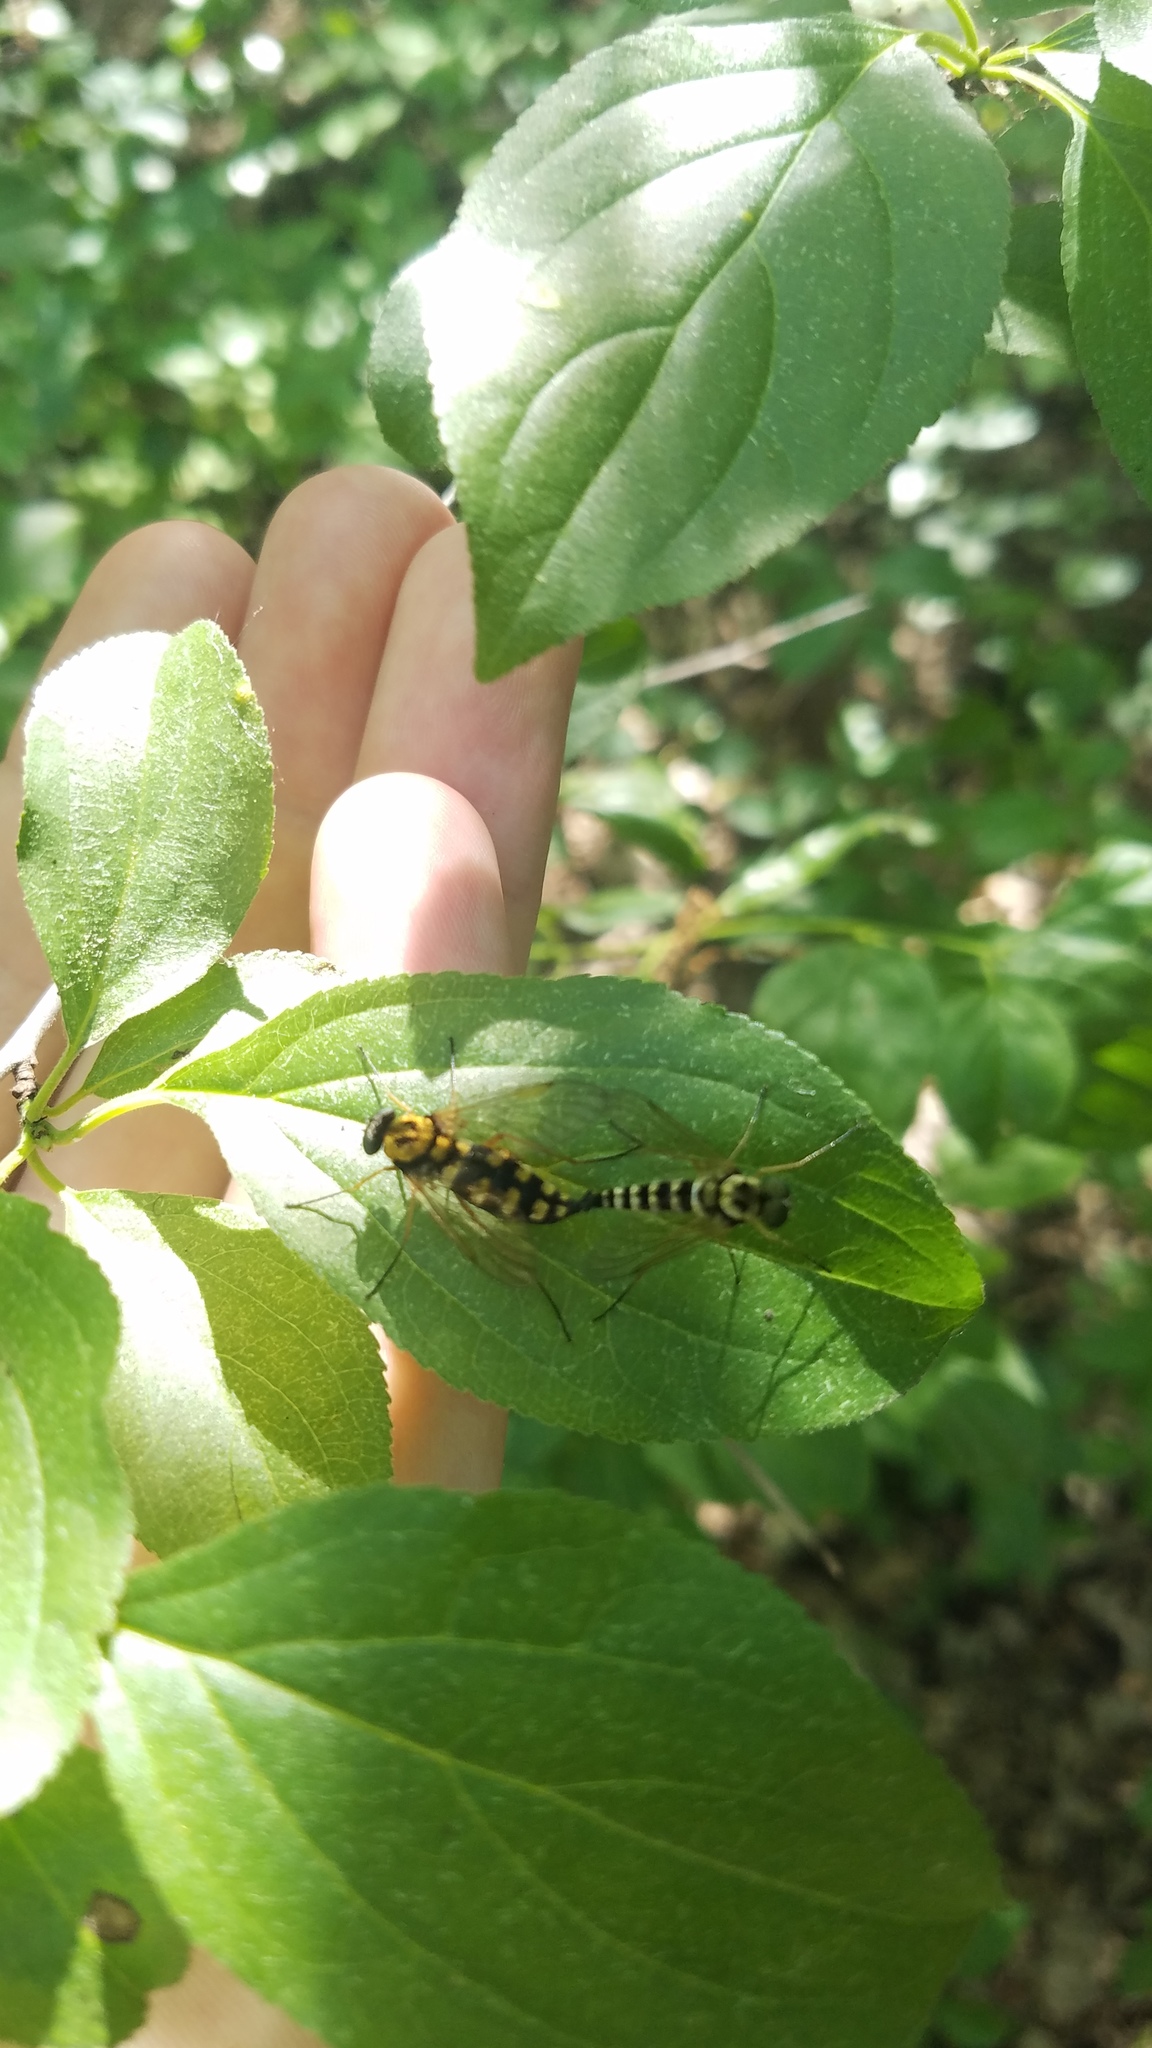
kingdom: Animalia
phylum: Arthropoda
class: Insecta
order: Diptera
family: Rhagionidae
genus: Chrysopilus
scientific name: Chrysopilus ornatus
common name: Ornate snipe fly
